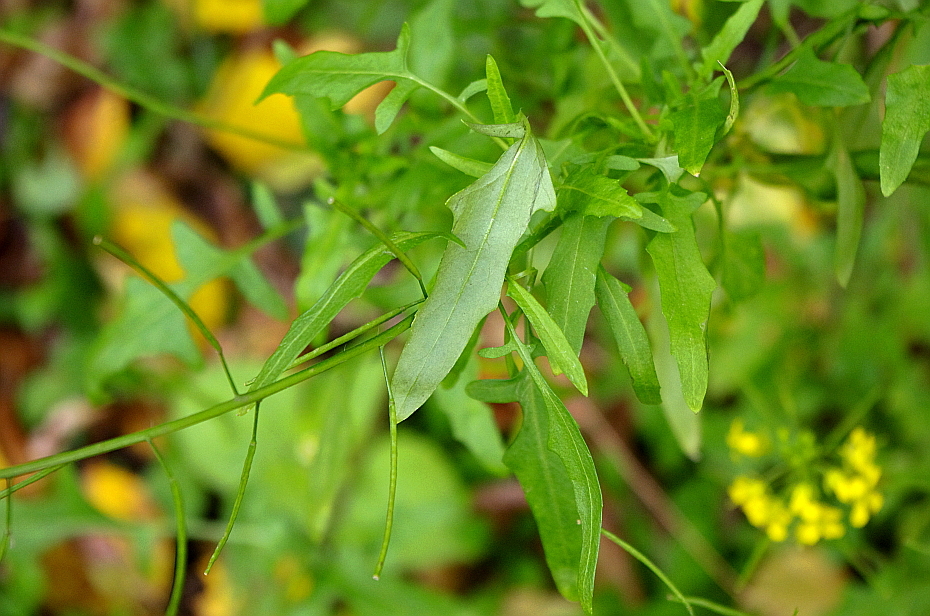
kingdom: Plantae
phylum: Tracheophyta
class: Magnoliopsida
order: Brassicales
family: Brassicaceae
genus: Erysimum
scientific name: Erysimum cheiranthoides
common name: Treacle mustard
